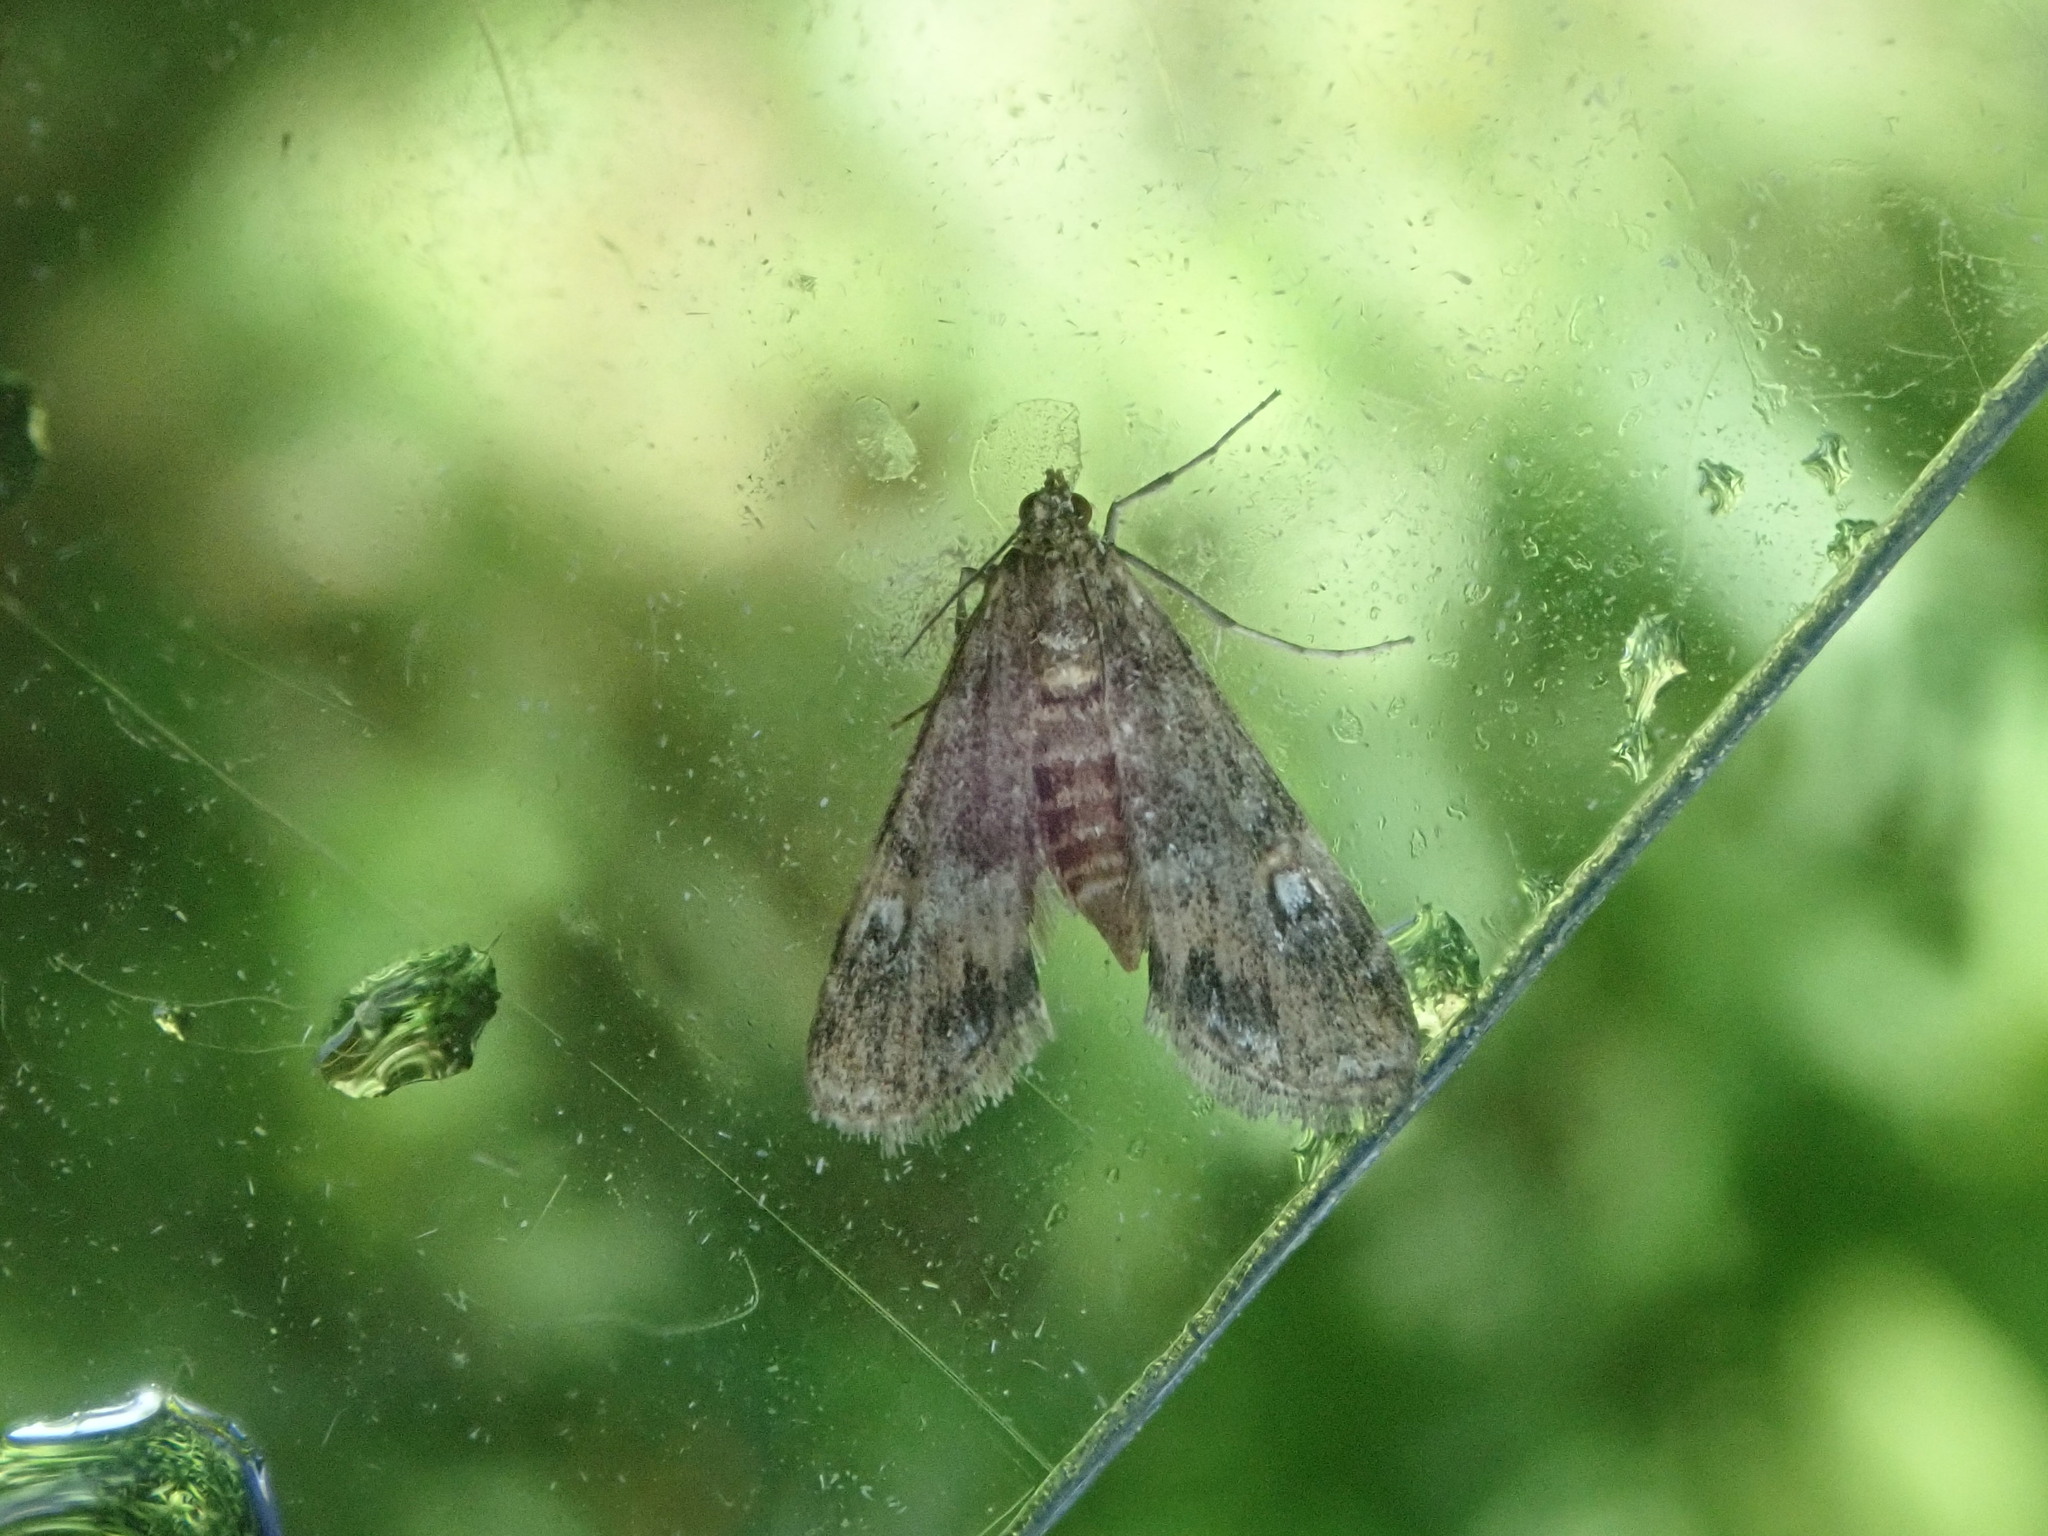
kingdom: Animalia
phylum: Arthropoda
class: Insecta
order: Lepidoptera
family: Crambidae
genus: Elophila
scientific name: Elophila tinealis
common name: Black duckweed moth
